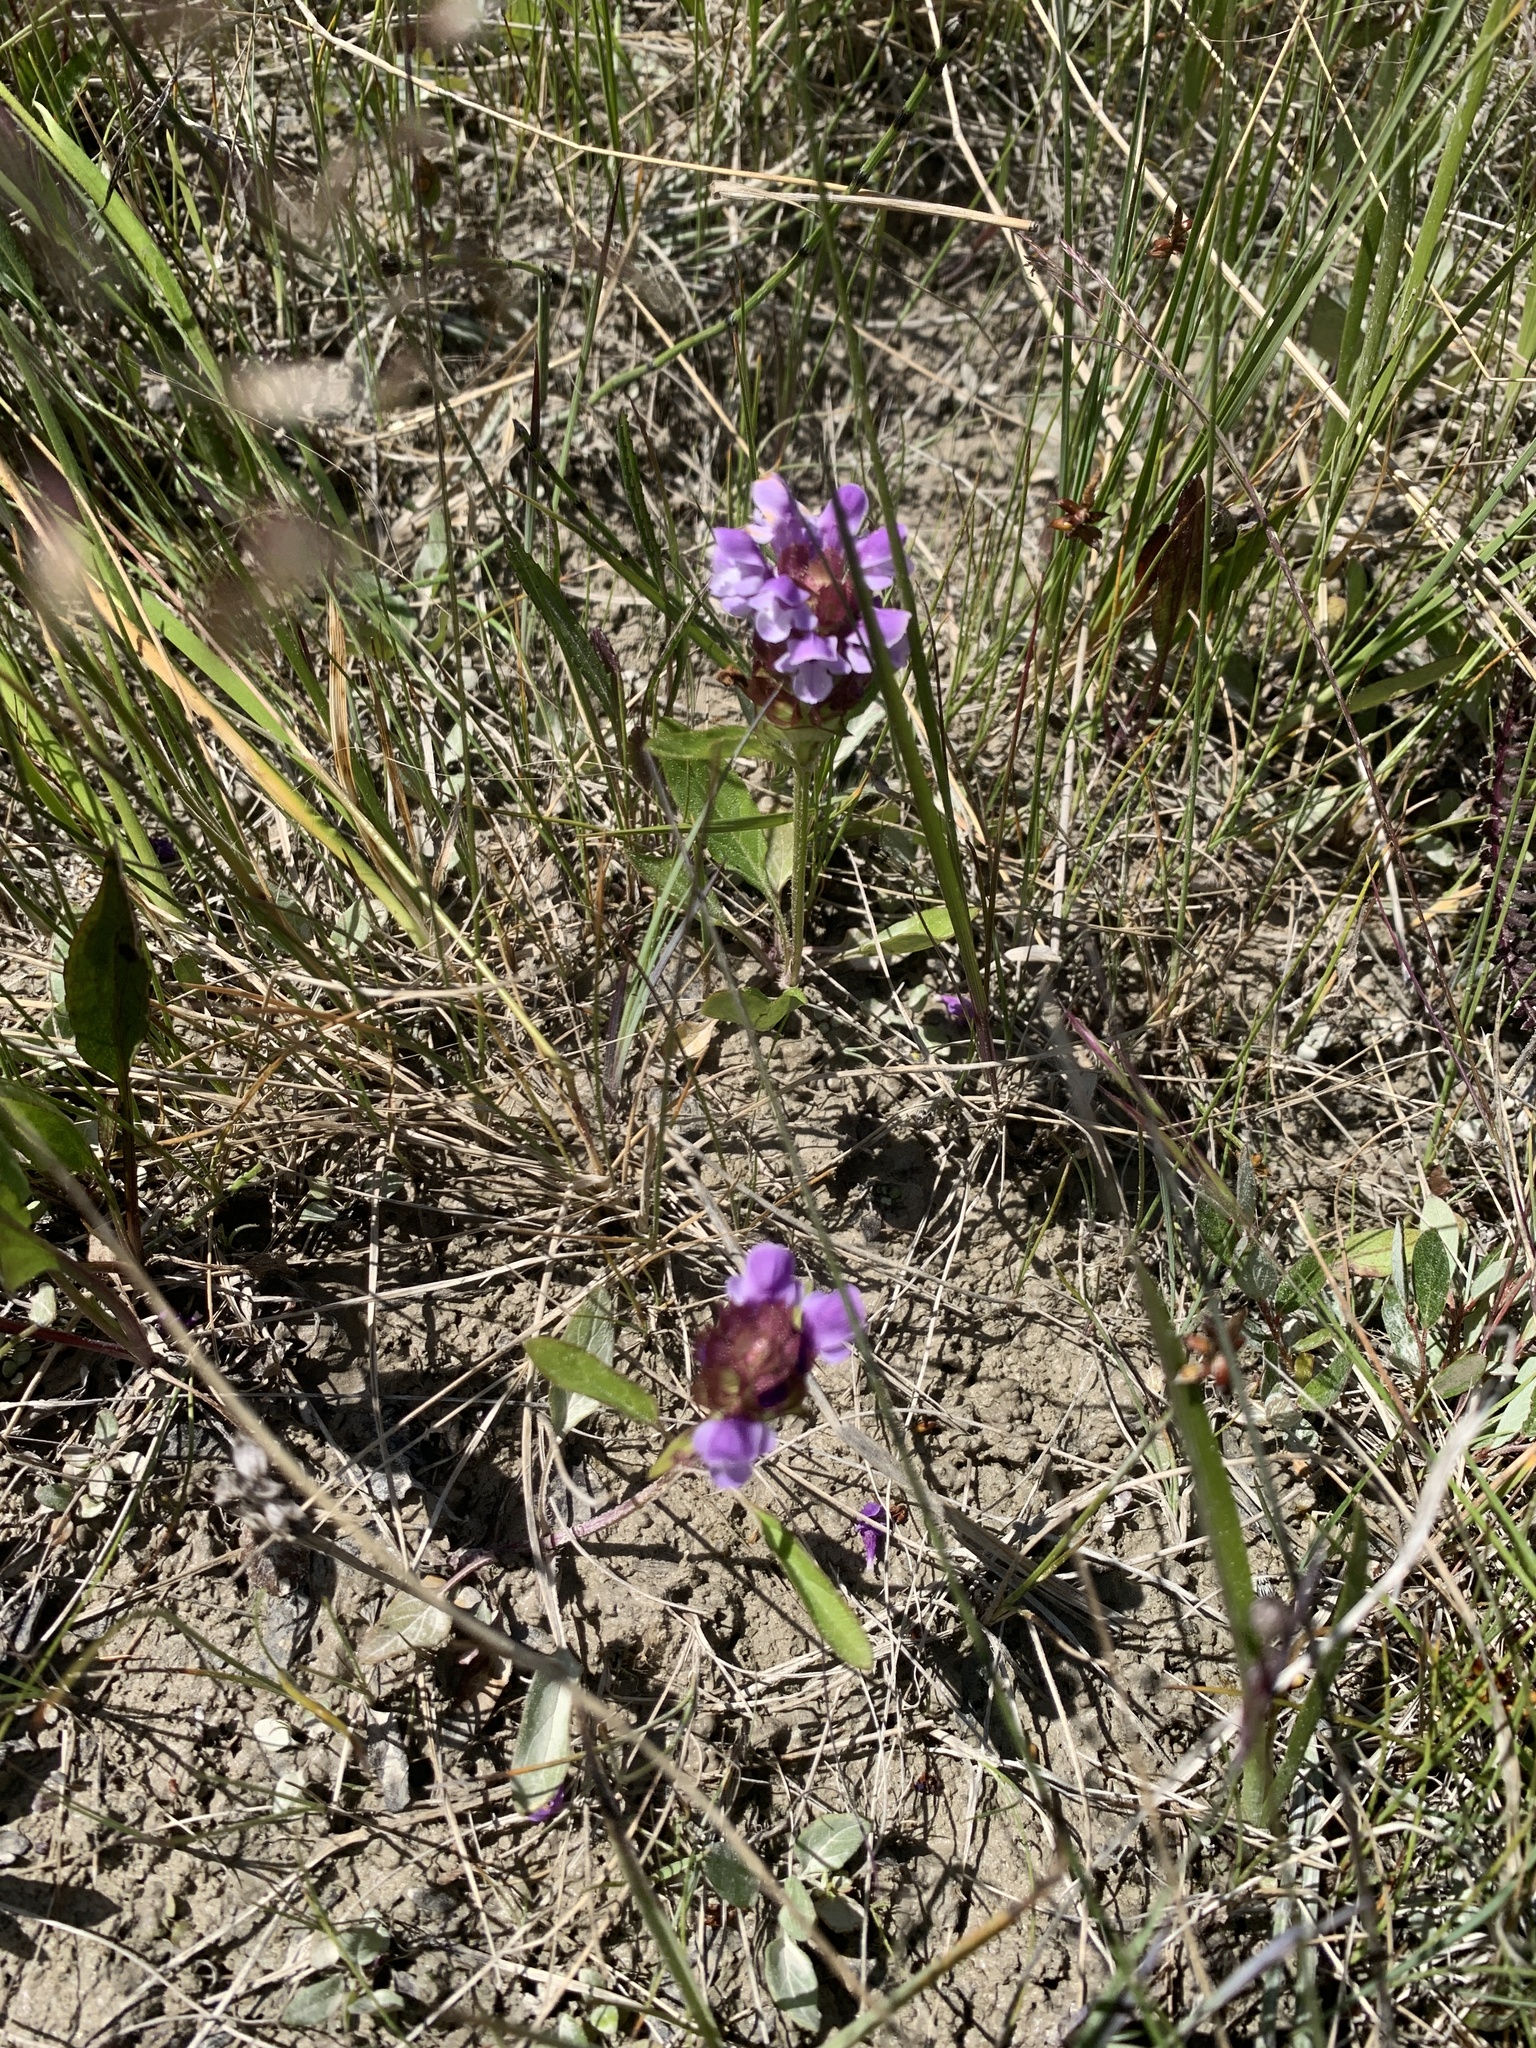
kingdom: Plantae
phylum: Tracheophyta
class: Magnoliopsida
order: Lamiales
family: Lamiaceae
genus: Prunella
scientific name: Prunella vulgaris
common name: Heal-all
